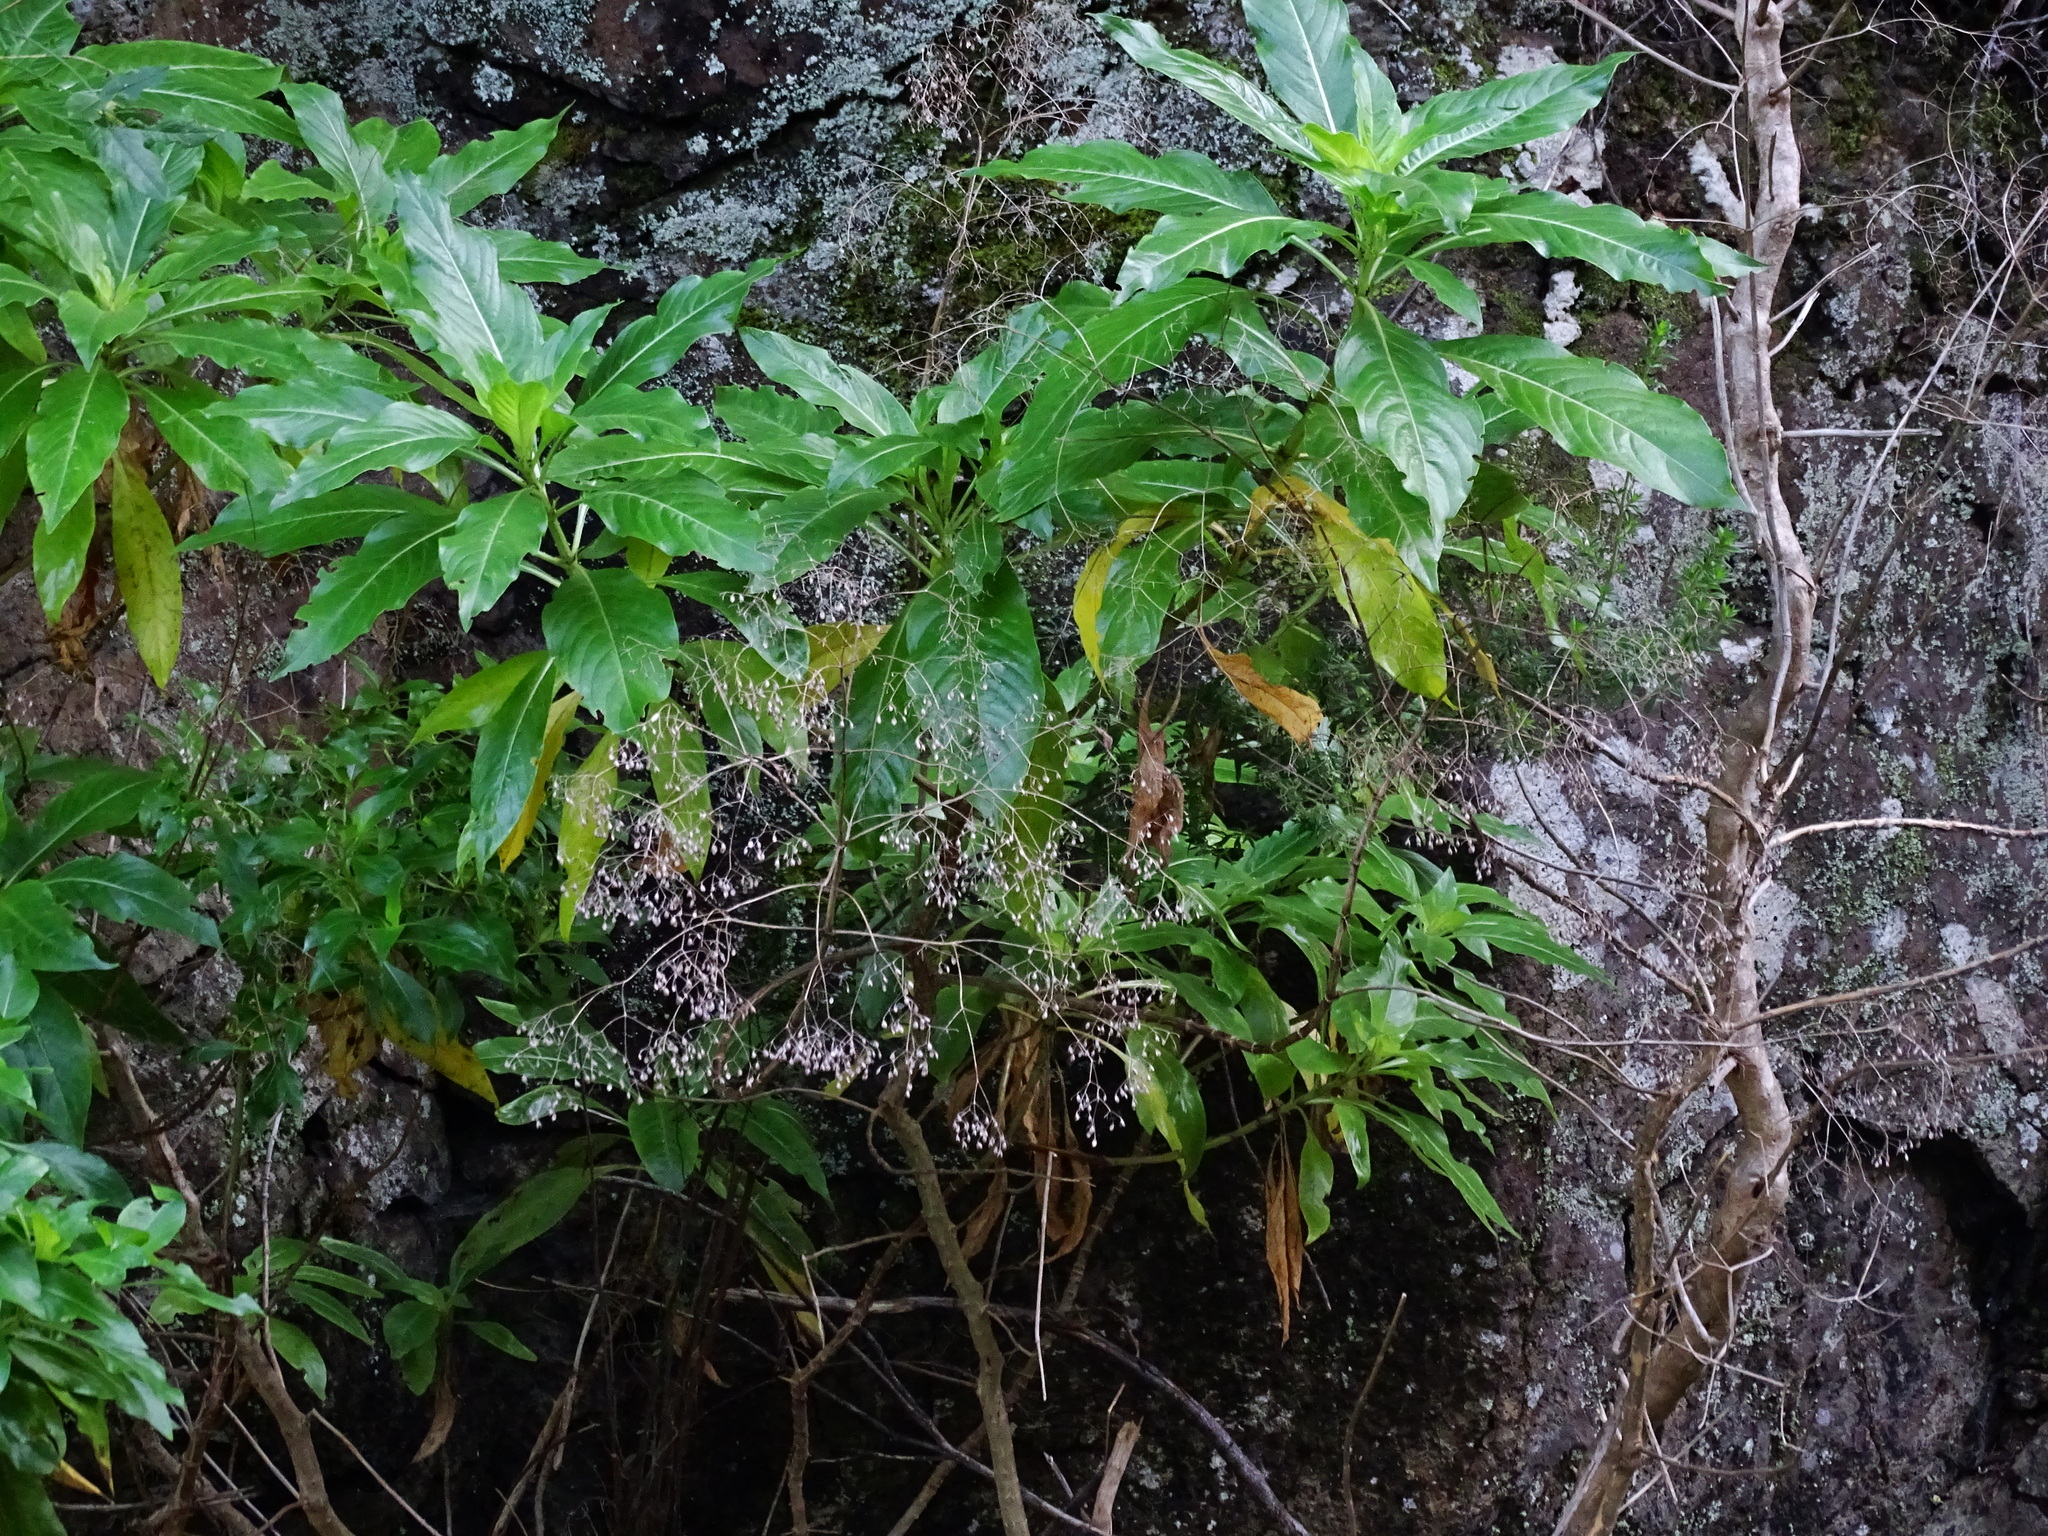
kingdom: Plantae
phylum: Tracheophyta
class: Magnoliopsida
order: Gentianales
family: Rubiaceae
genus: Phyllis
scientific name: Phyllis nobla
